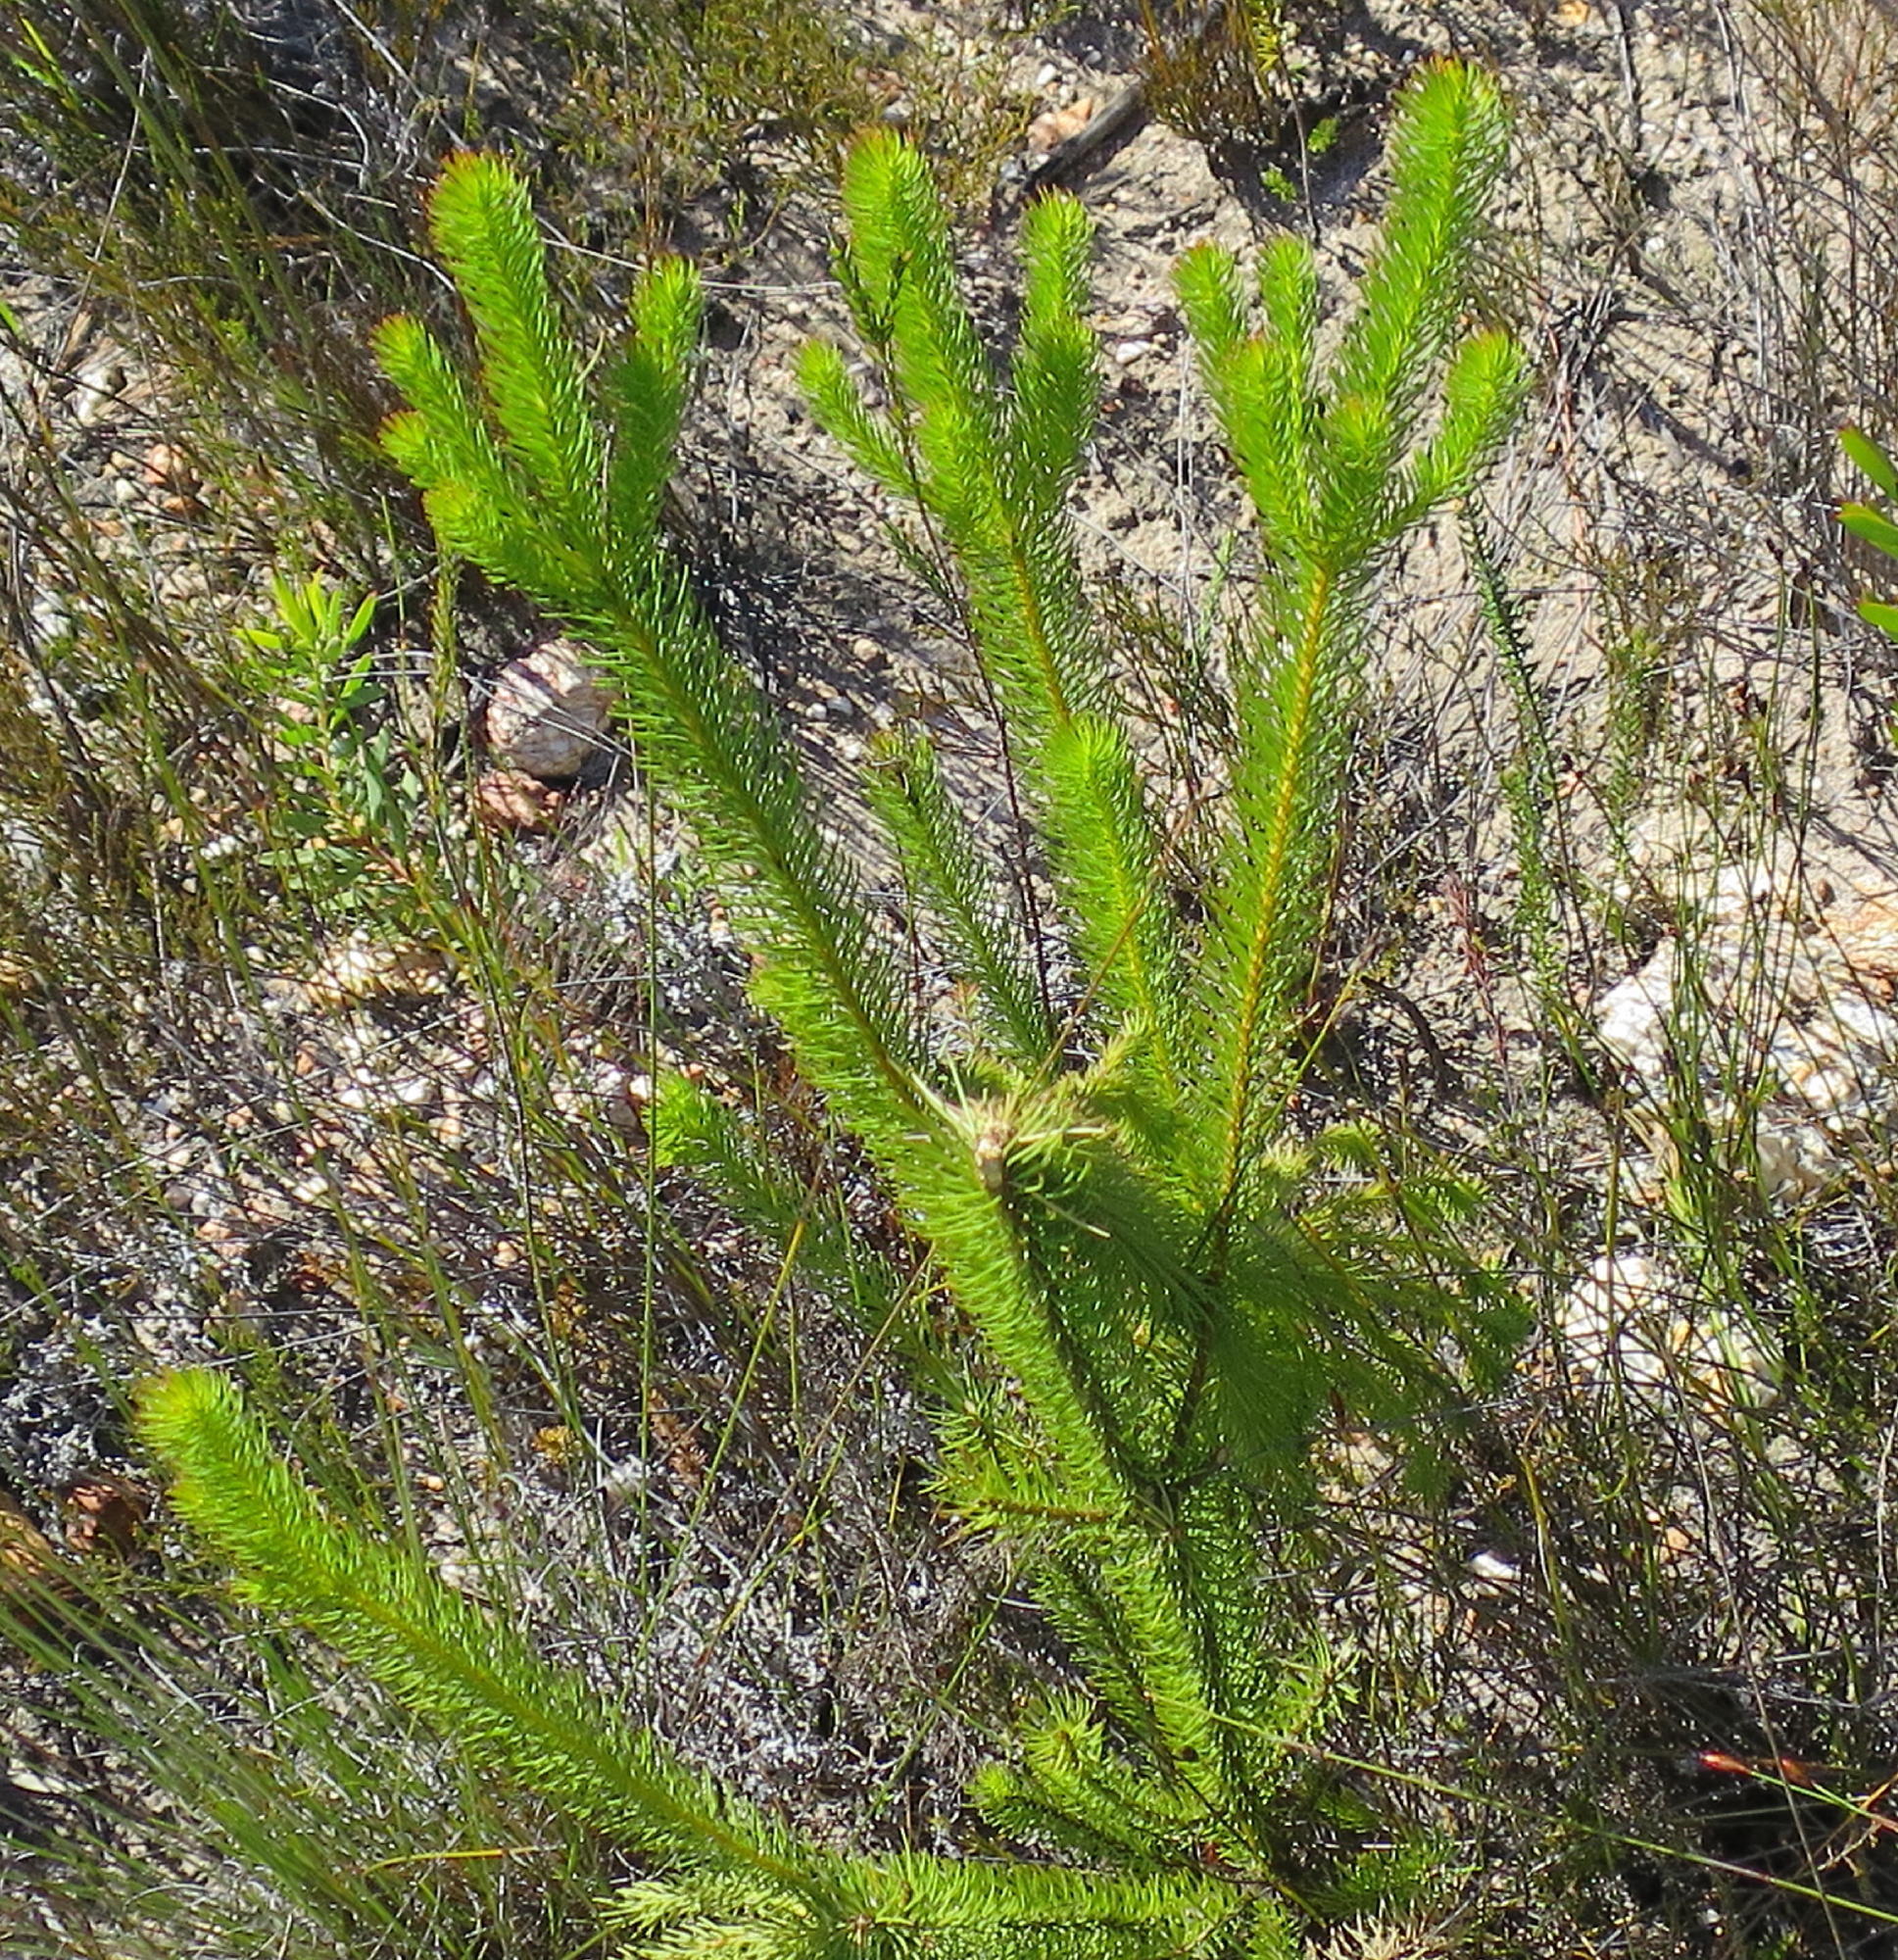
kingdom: Plantae
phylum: Tracheophyta
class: Magnoliopsida
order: Proteales
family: Proteaceae
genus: Leucadendron
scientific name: Leucadendron ericifolium
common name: Erica-leaved conebush
